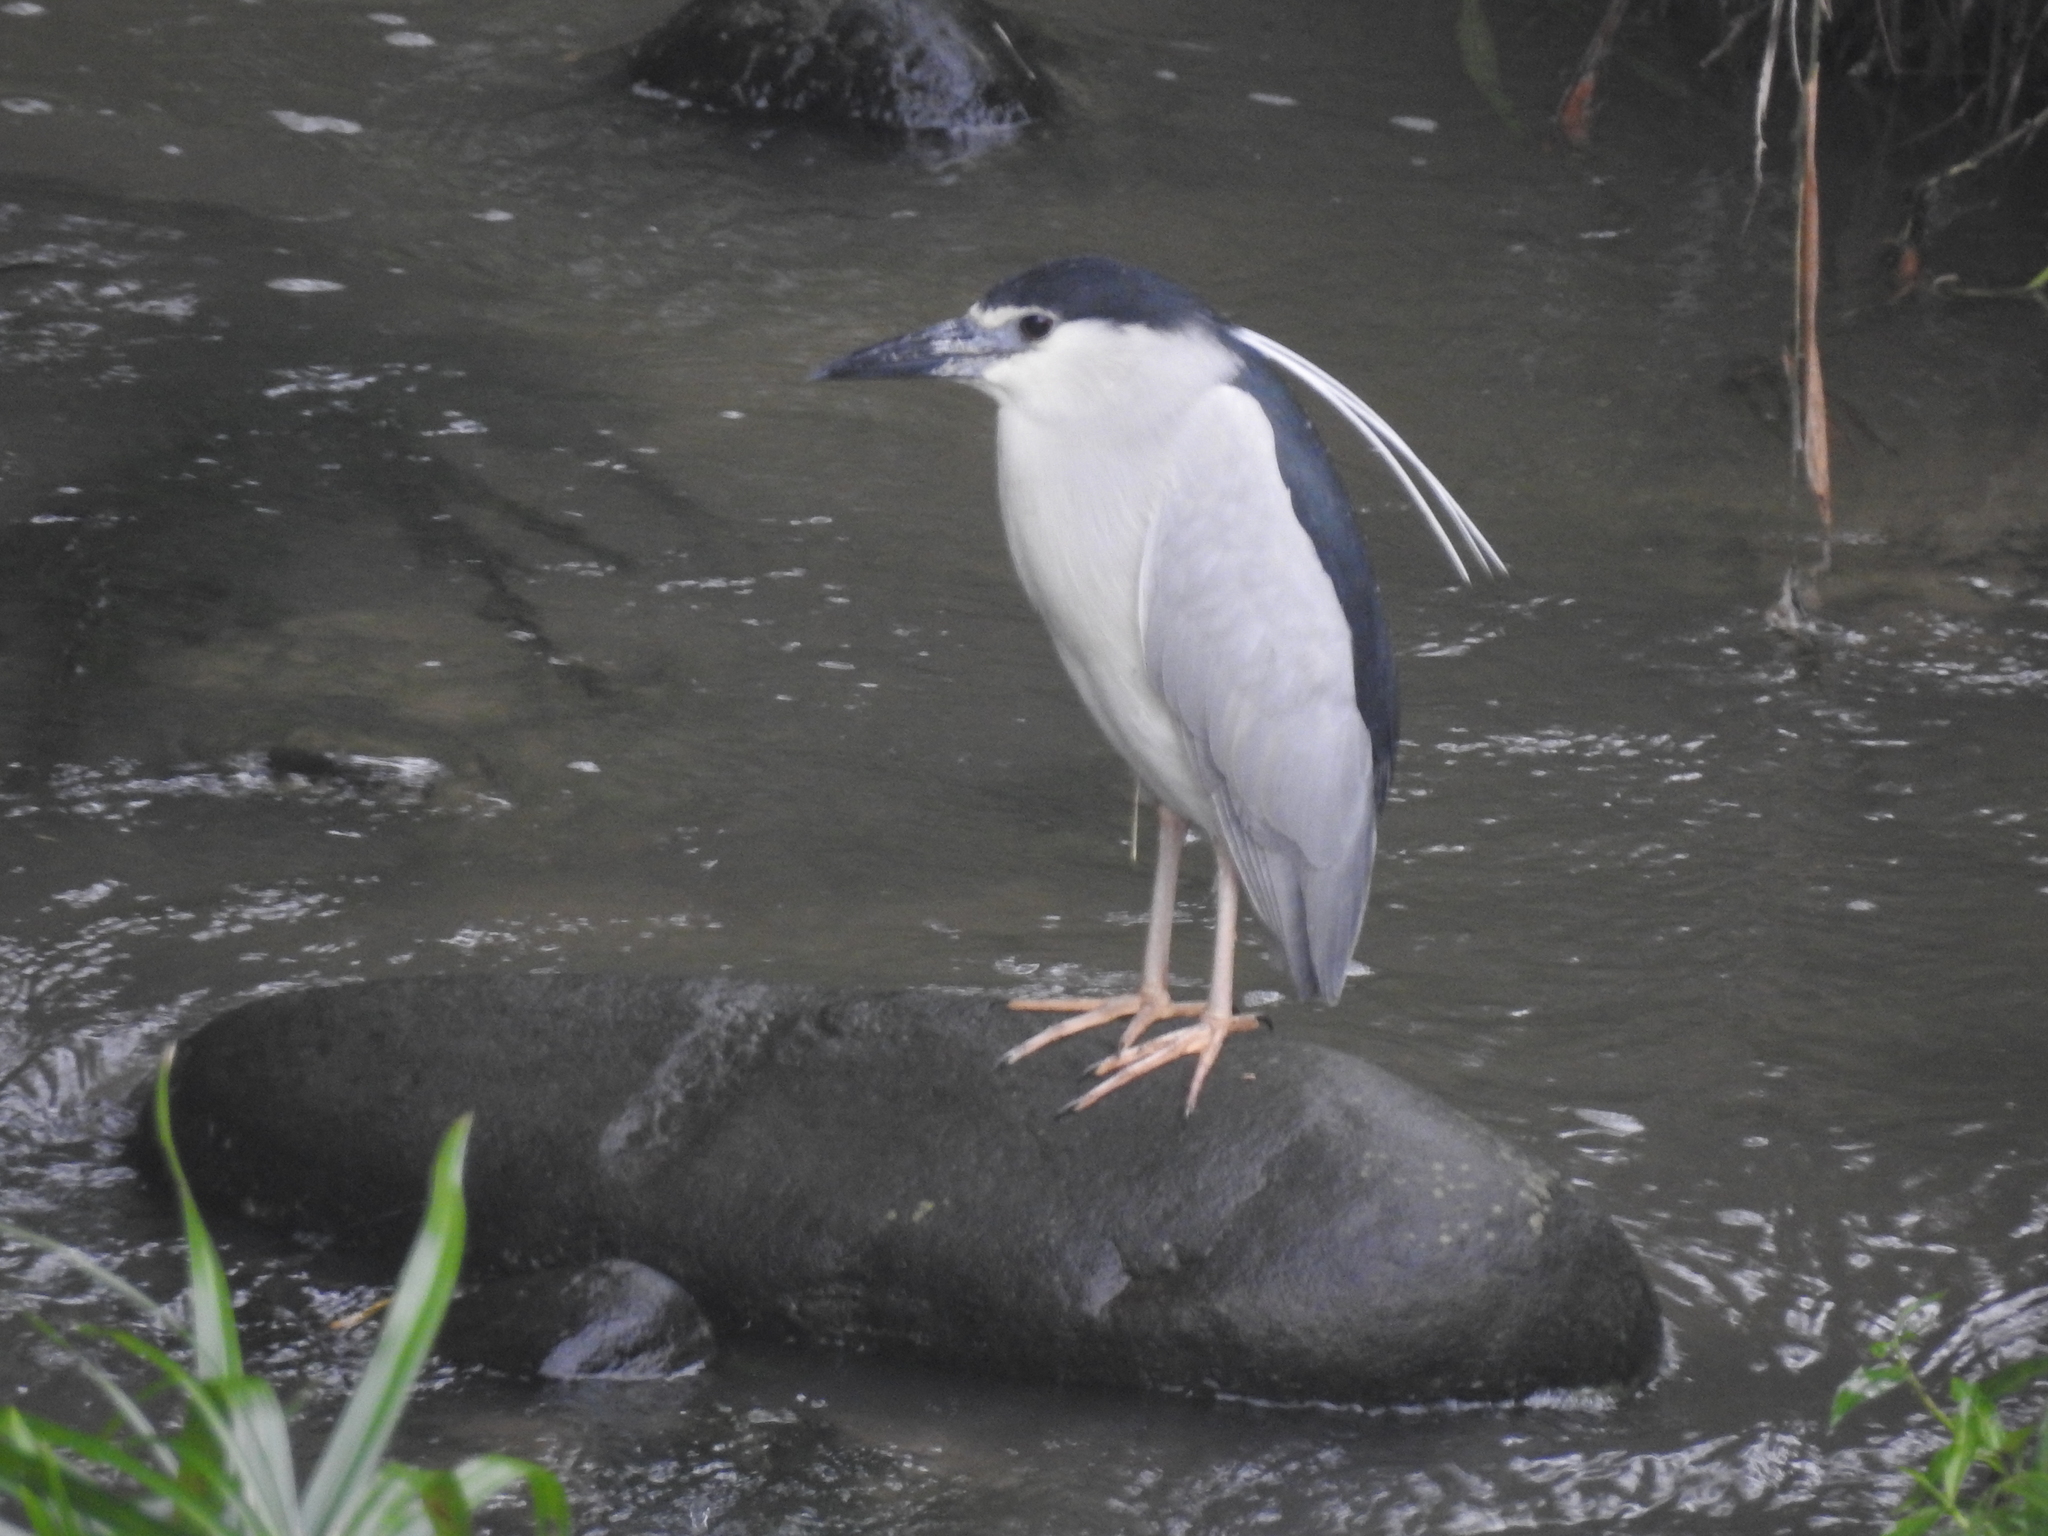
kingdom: Animalia
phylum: Chordata
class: Aves
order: Pelecaniformes
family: Ardeidae
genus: Nycticorax
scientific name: Nycticorax nycticorax
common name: Black-crowned night heron
